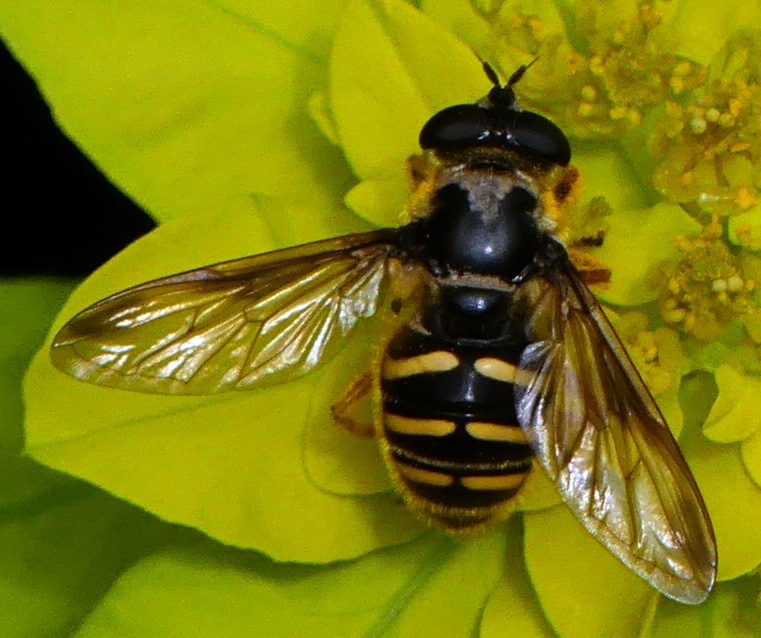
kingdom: Animalia
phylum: Arthropoda
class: Insecta
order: Diptera
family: Syrphidae
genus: Sericomyia
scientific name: Sericomyia chrysotoxoides
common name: Oblique-banded pond fly
